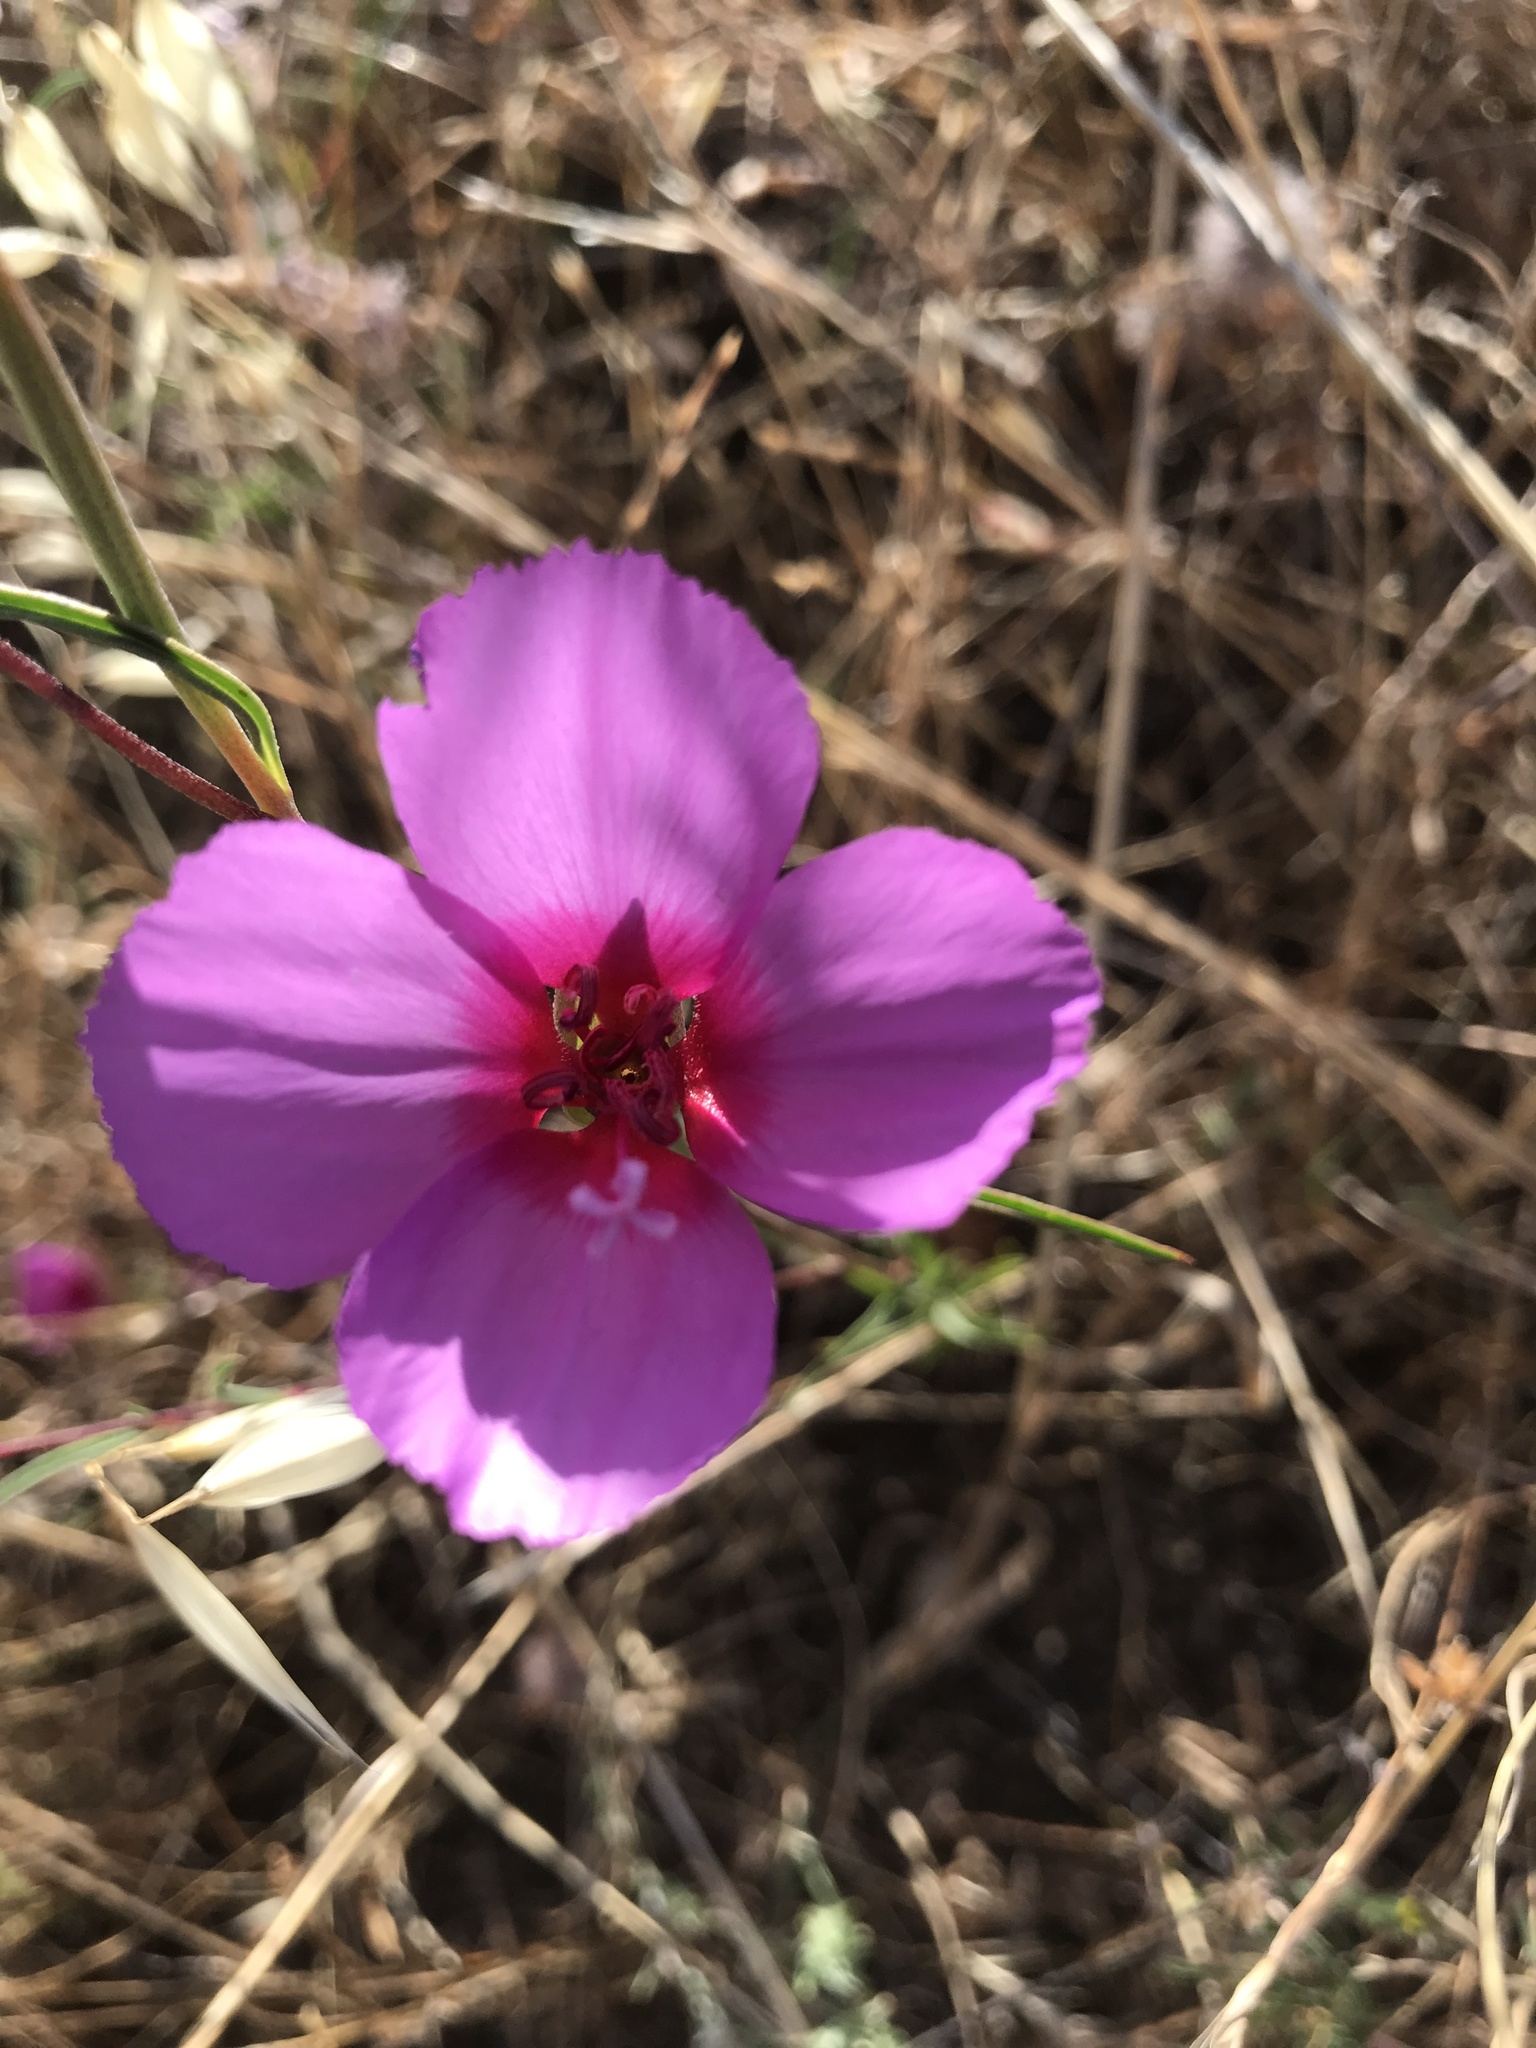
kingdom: Plantae
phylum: Tracheophyta
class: Magnoliopsida
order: Myrtales
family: Onagraceae
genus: Clarkia
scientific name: Clarkia rubicunda
